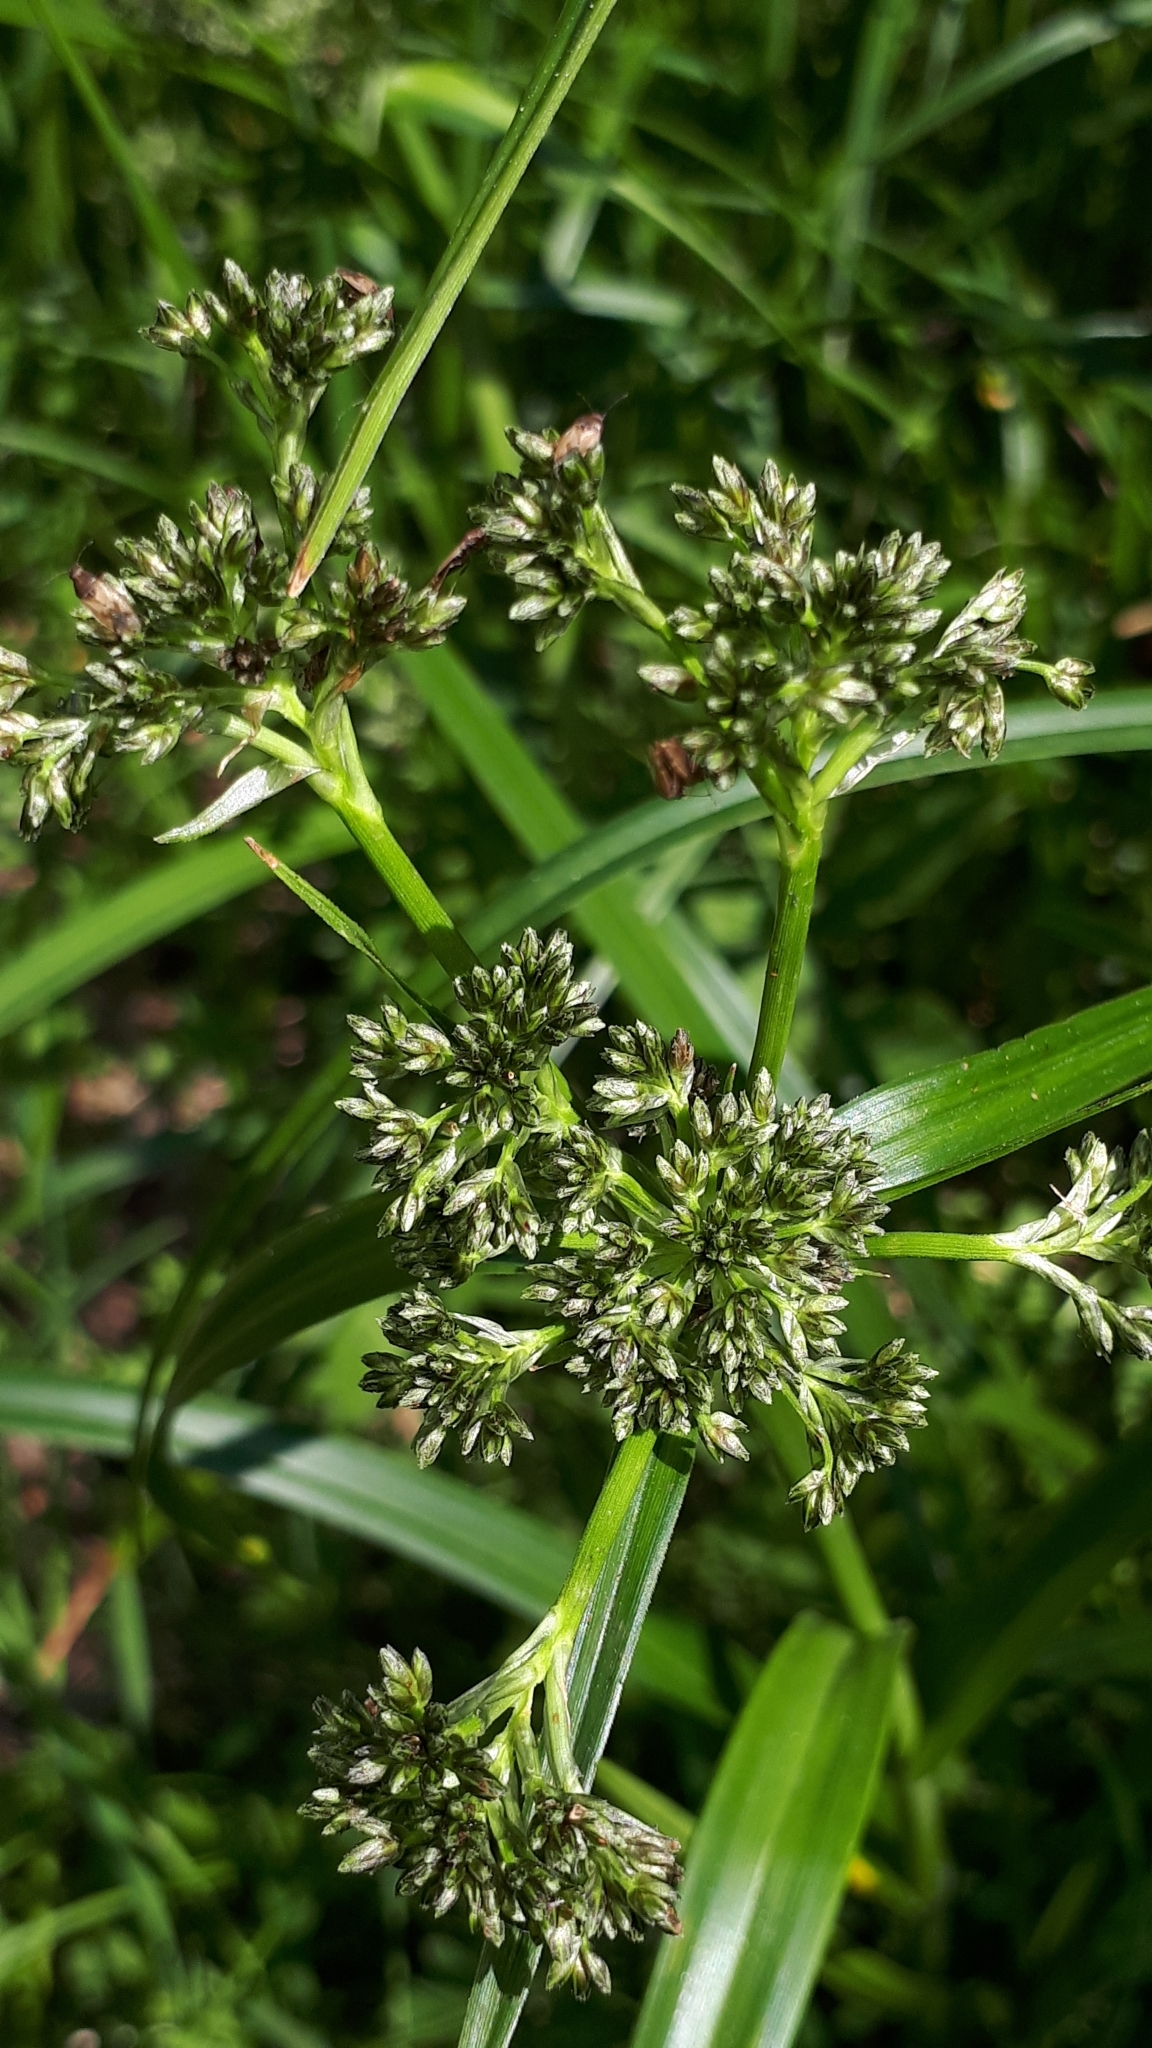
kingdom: Plantae
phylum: Tracheophyta
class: Liliopsida
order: Poales
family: Cyperaceae
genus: Scirpus
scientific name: Scirpus sylvaticus
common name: Wood club-rush
